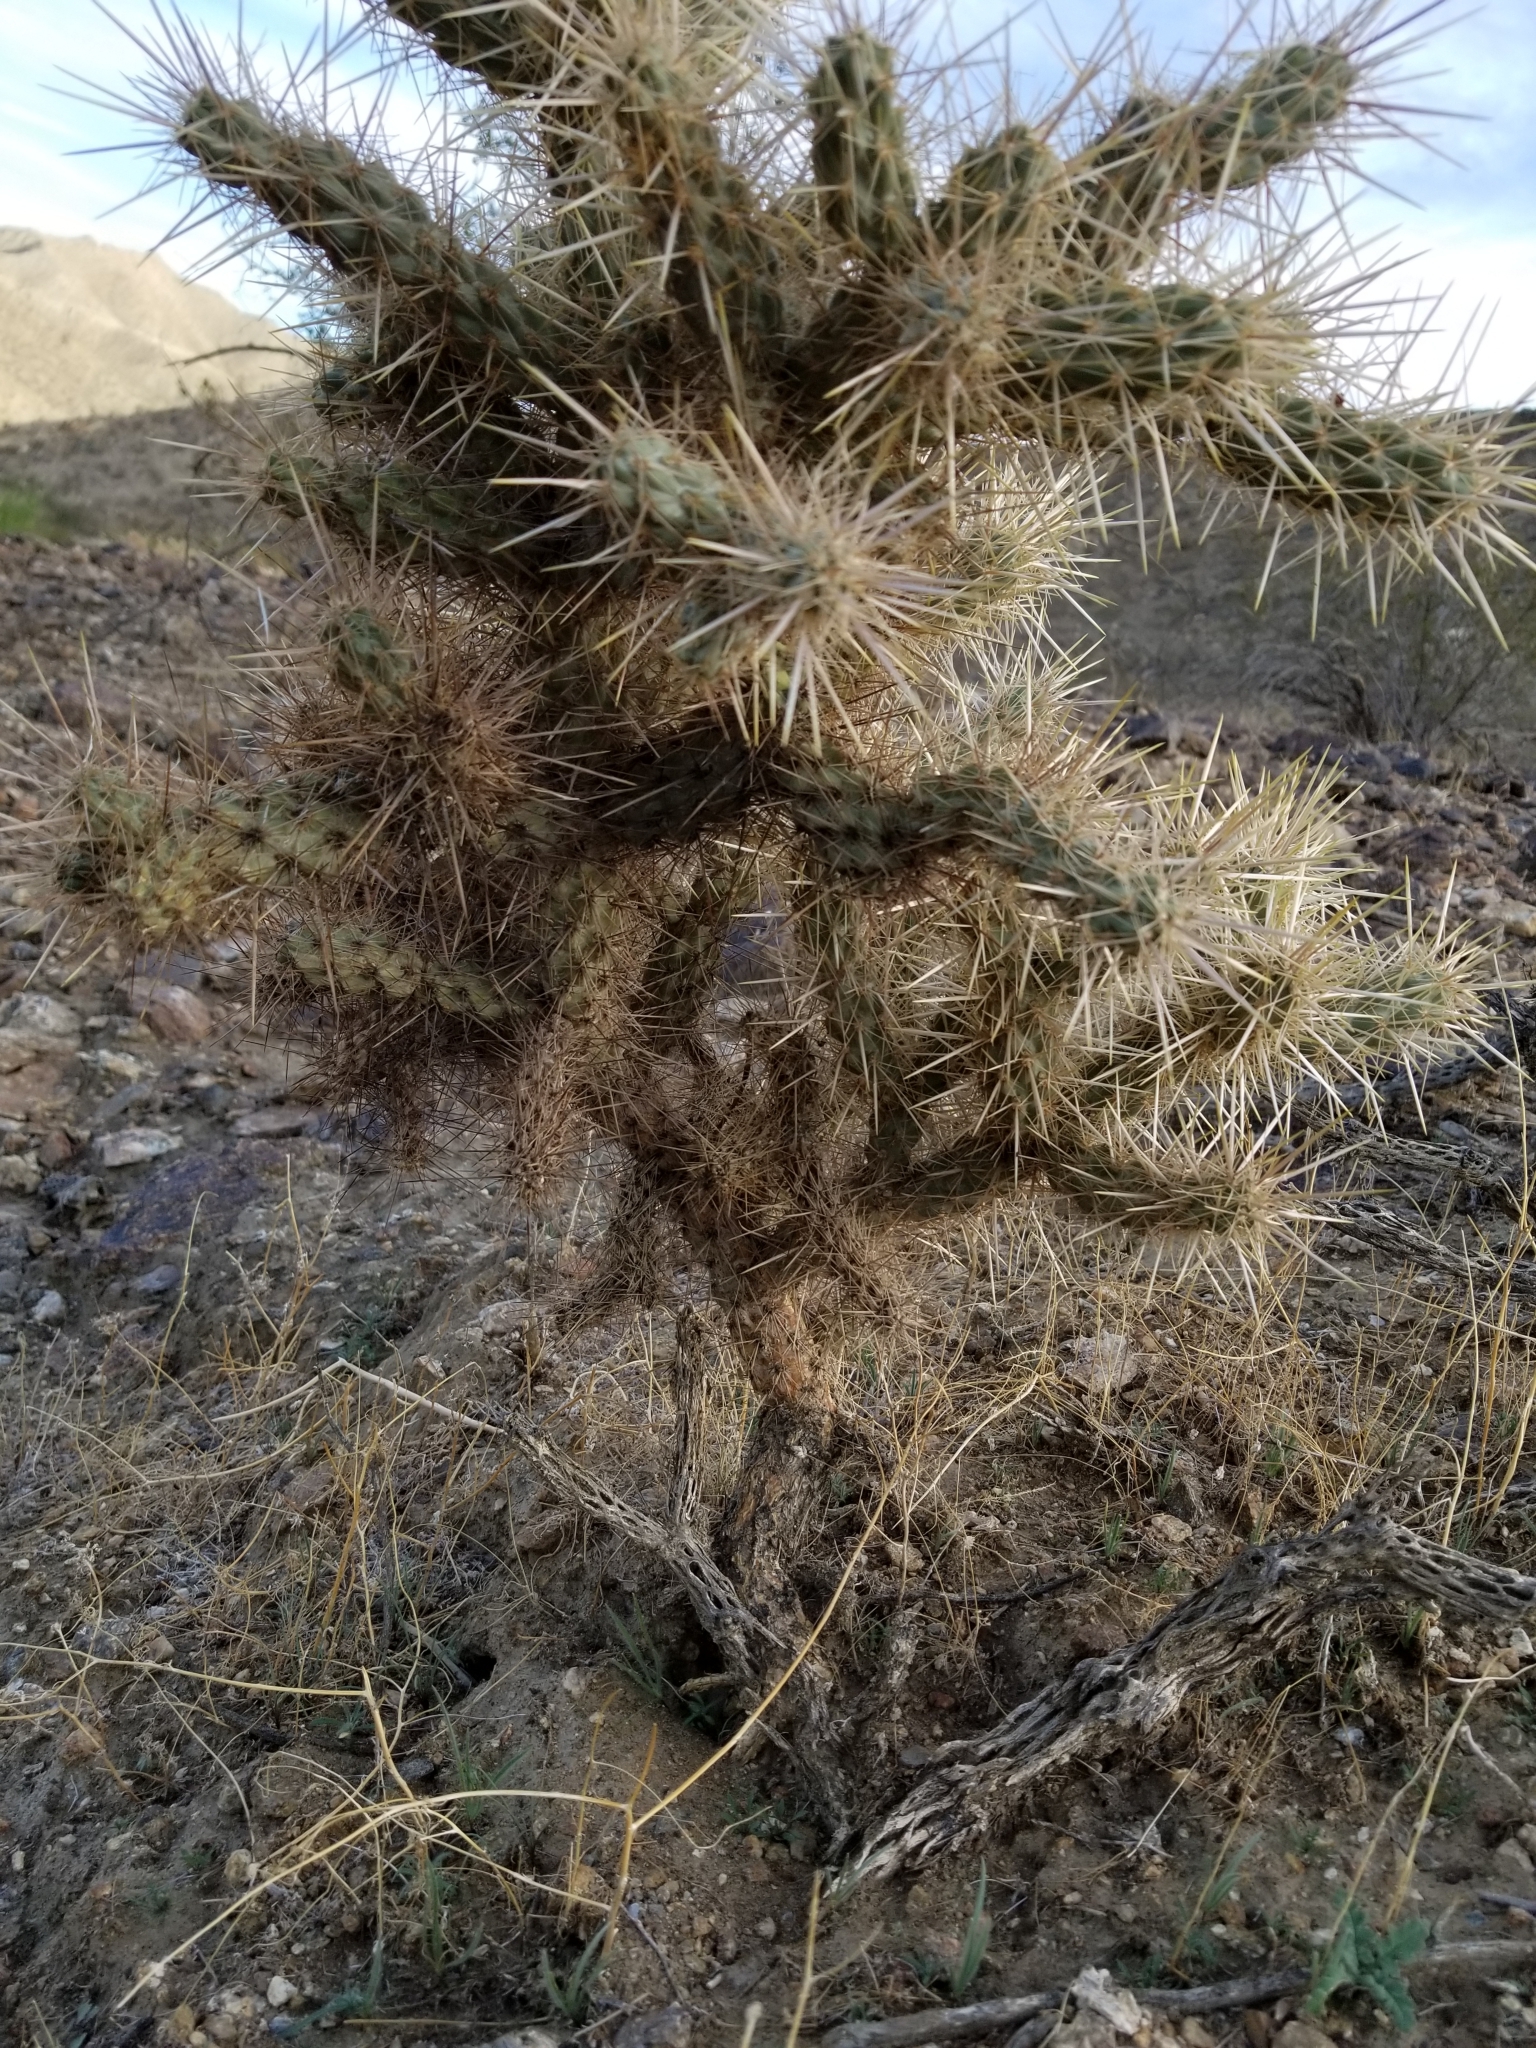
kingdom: Plantae
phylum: Tracheophyta
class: Magnoliopsida
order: Caryophyllales
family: Cactaceae
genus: Cylindropuntia
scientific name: Cylindropuntia echinocarpa
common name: Ground cholla
